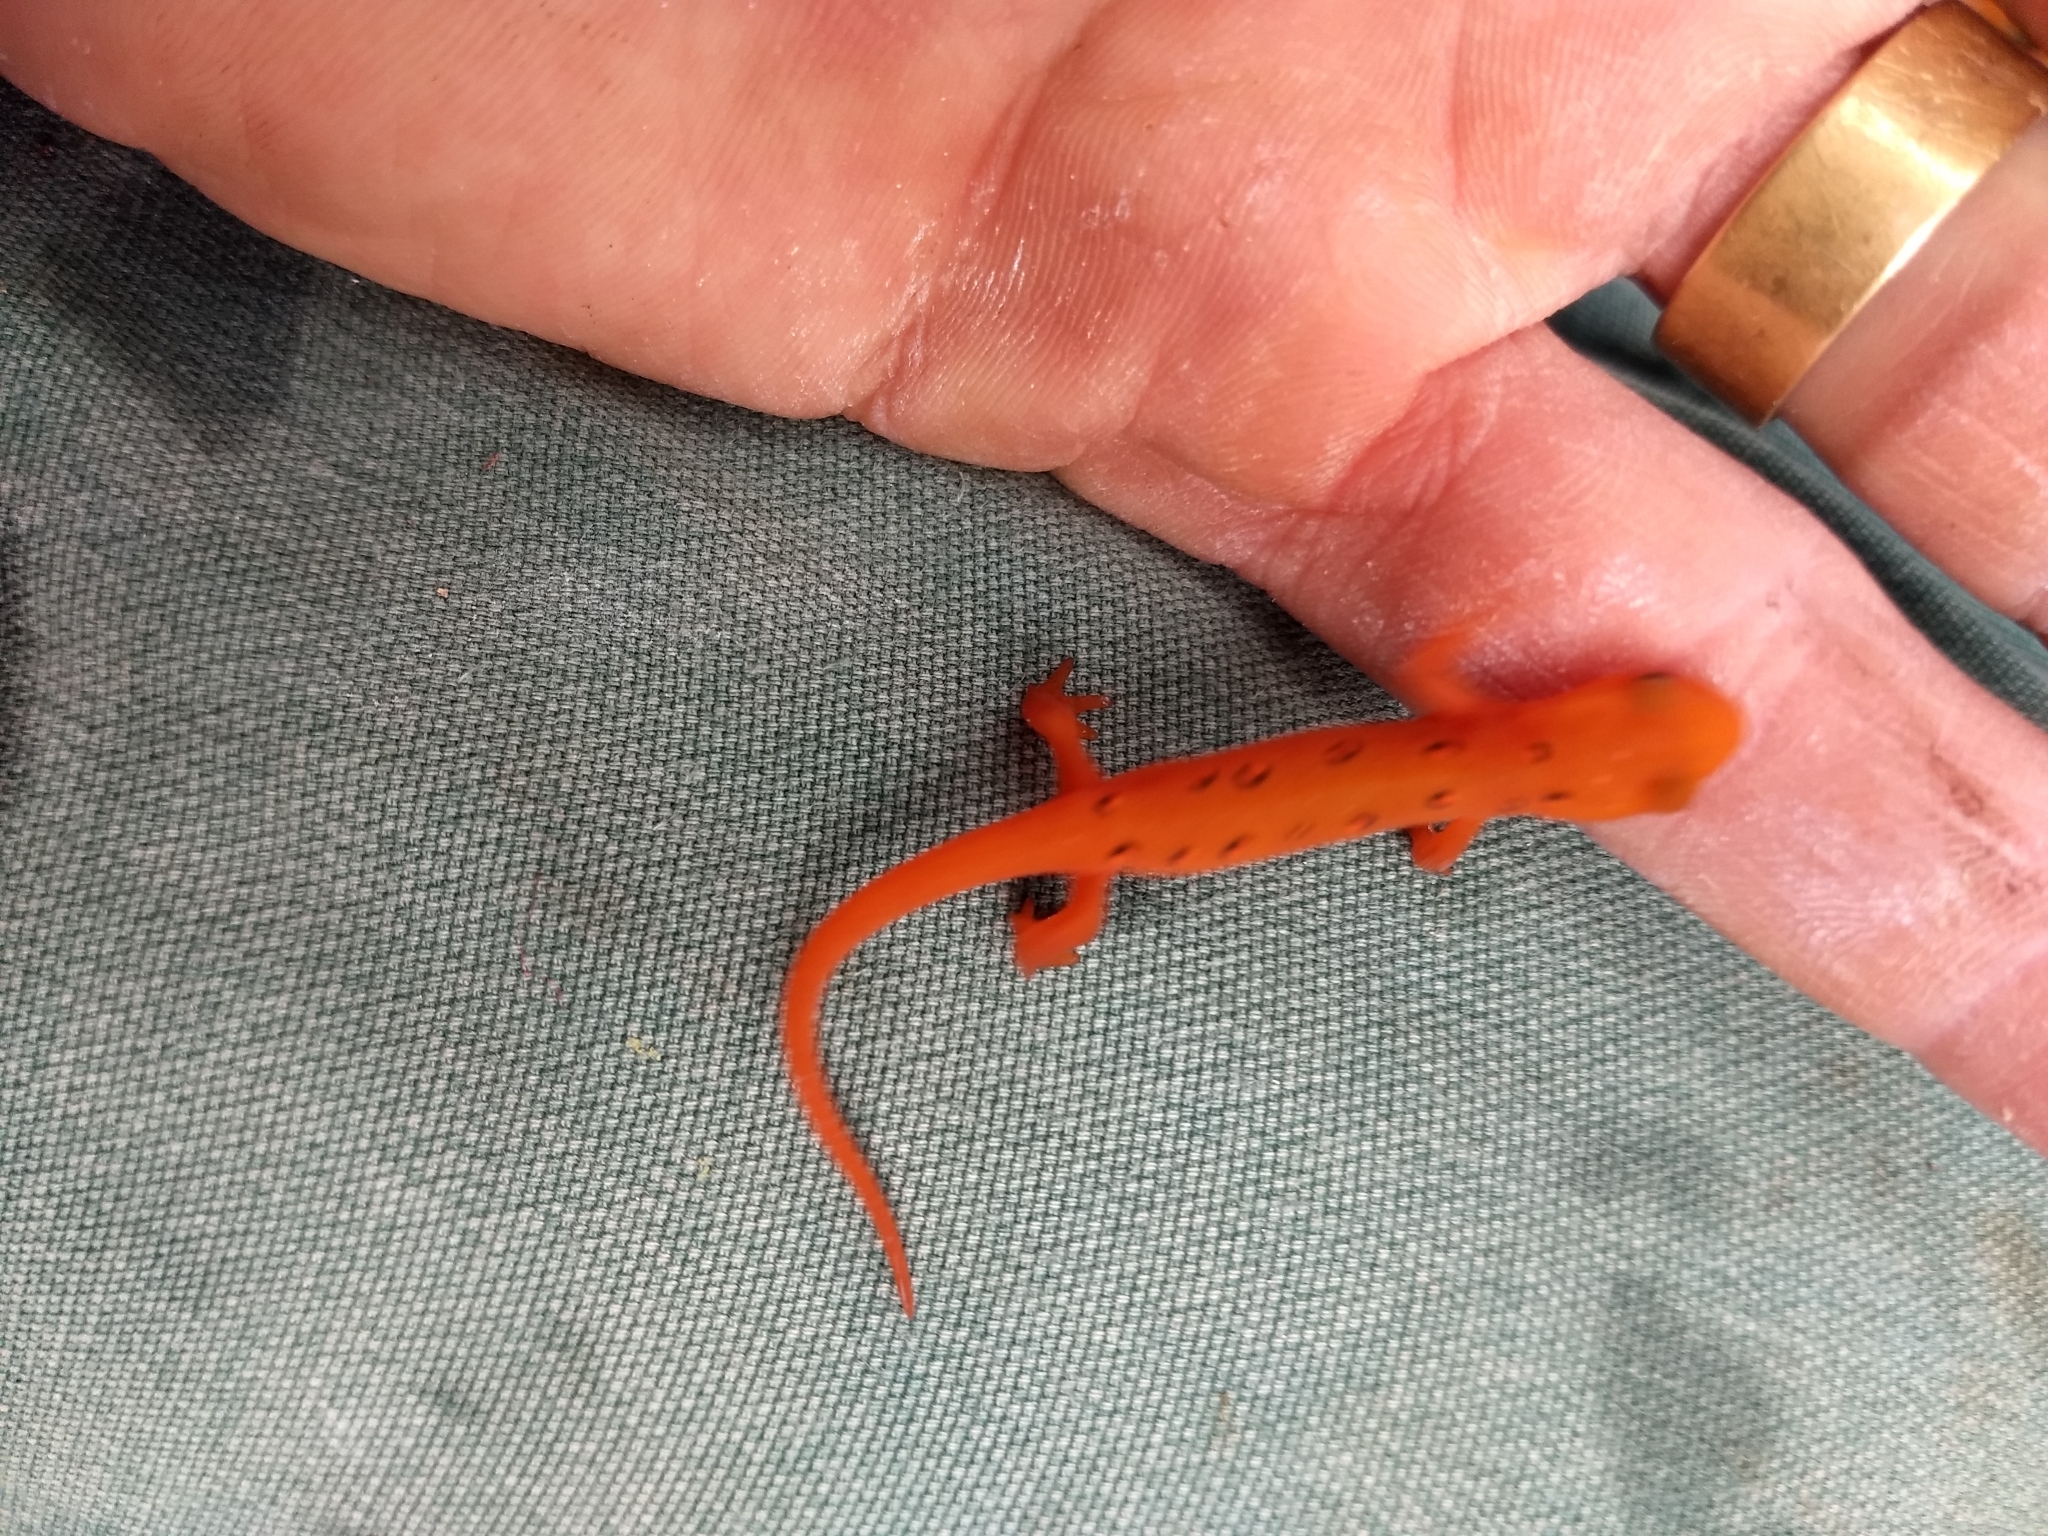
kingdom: Animalia
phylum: Chordata
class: Amphibia
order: Caudata
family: Salamandridae
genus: Notophthalmus
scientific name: Notophthalmus viridescens
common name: Eastern newt
